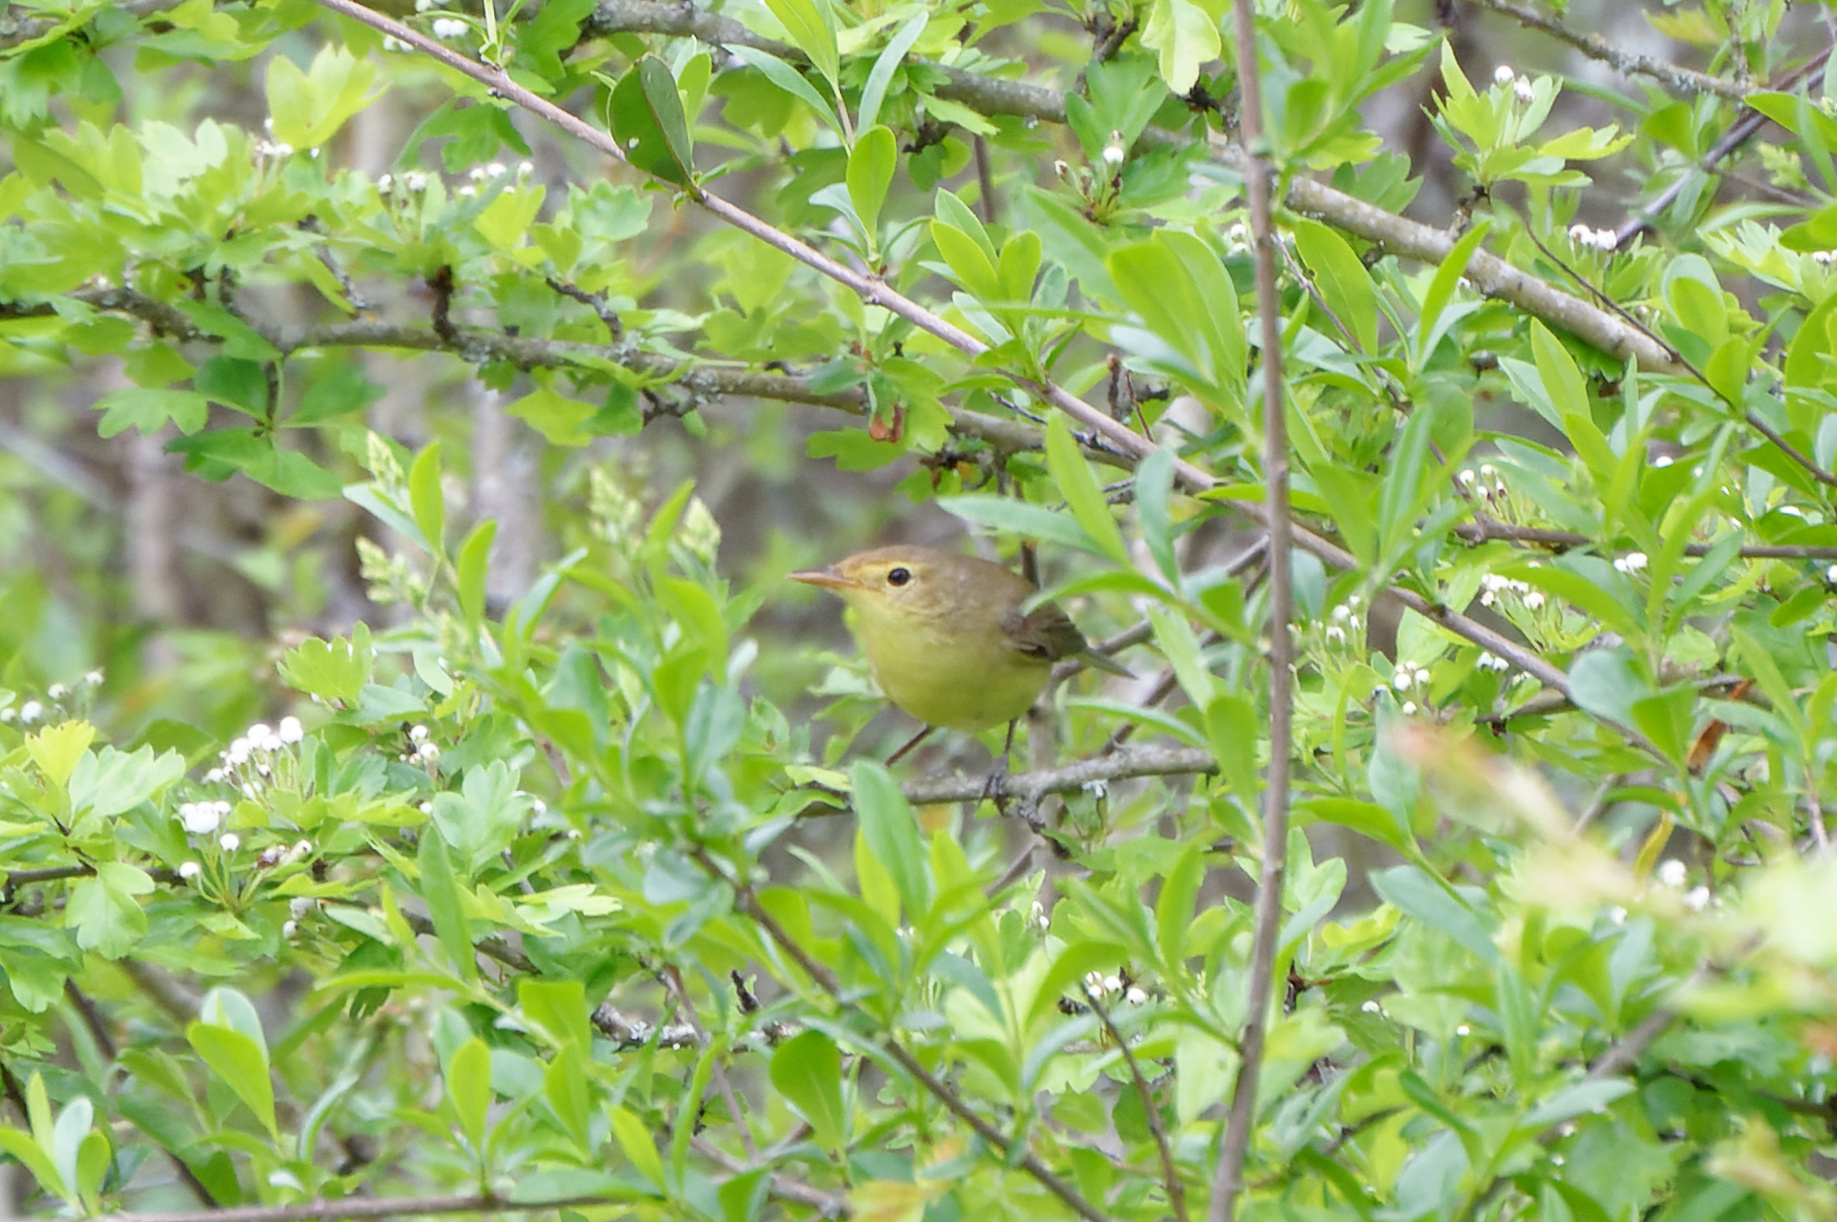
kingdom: Animalia
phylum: Chordata
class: Aves
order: Passeriformes
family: Acrocephalidae
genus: Hippolais
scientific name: Hippolais polyglotta
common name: Melodious warbler
